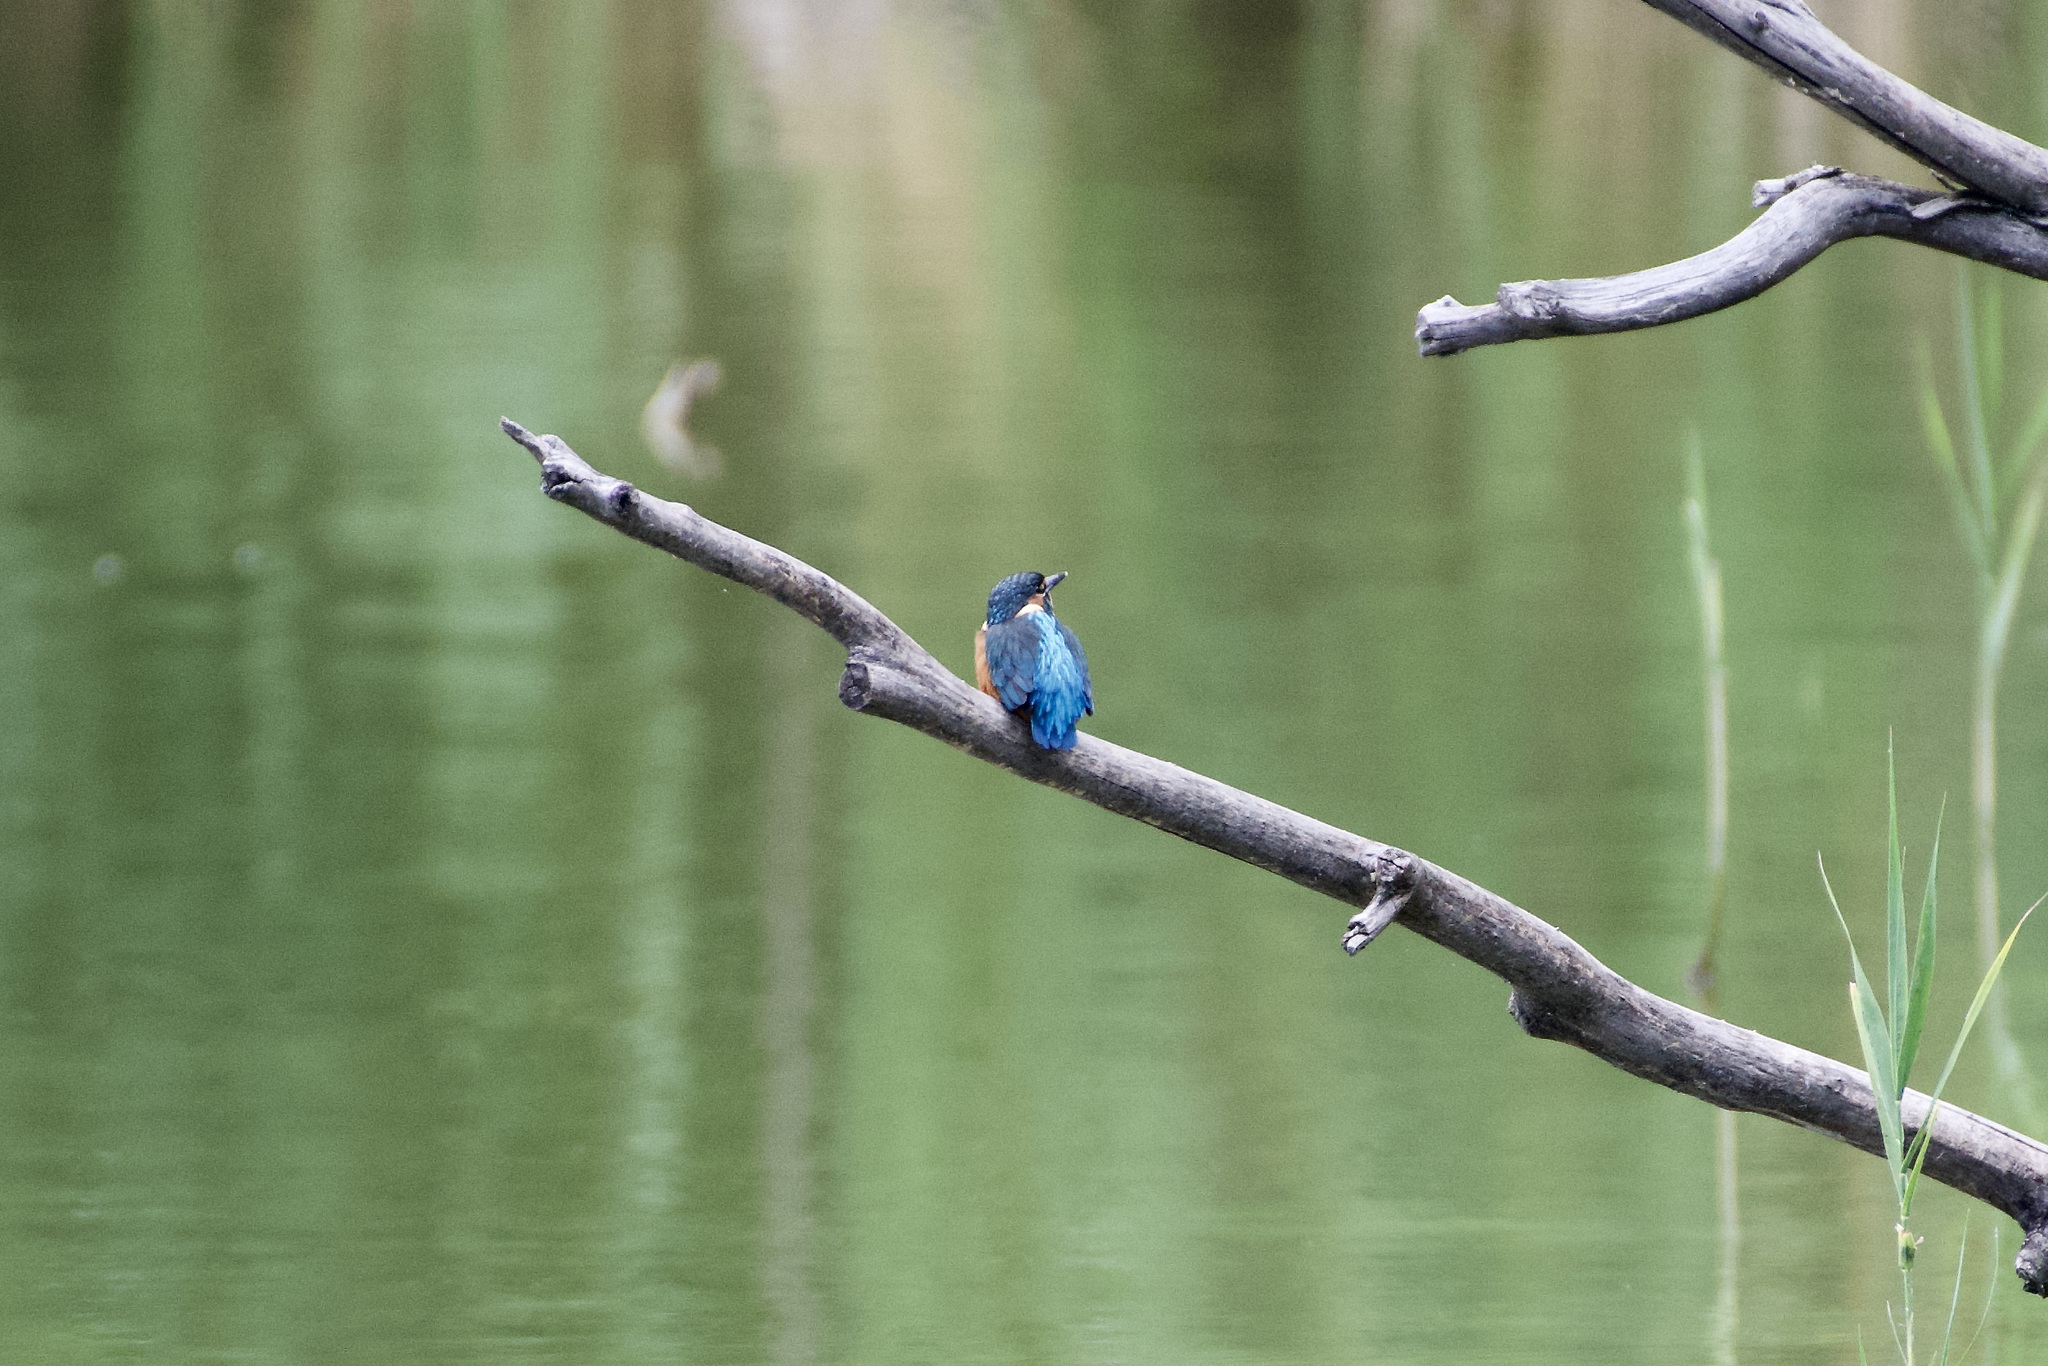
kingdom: Animalia
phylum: Chordata
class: Aves
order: Coraciiformes
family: Alcedinidae
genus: Alcedo
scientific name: Alcedo atthis
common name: Common kingfisher
